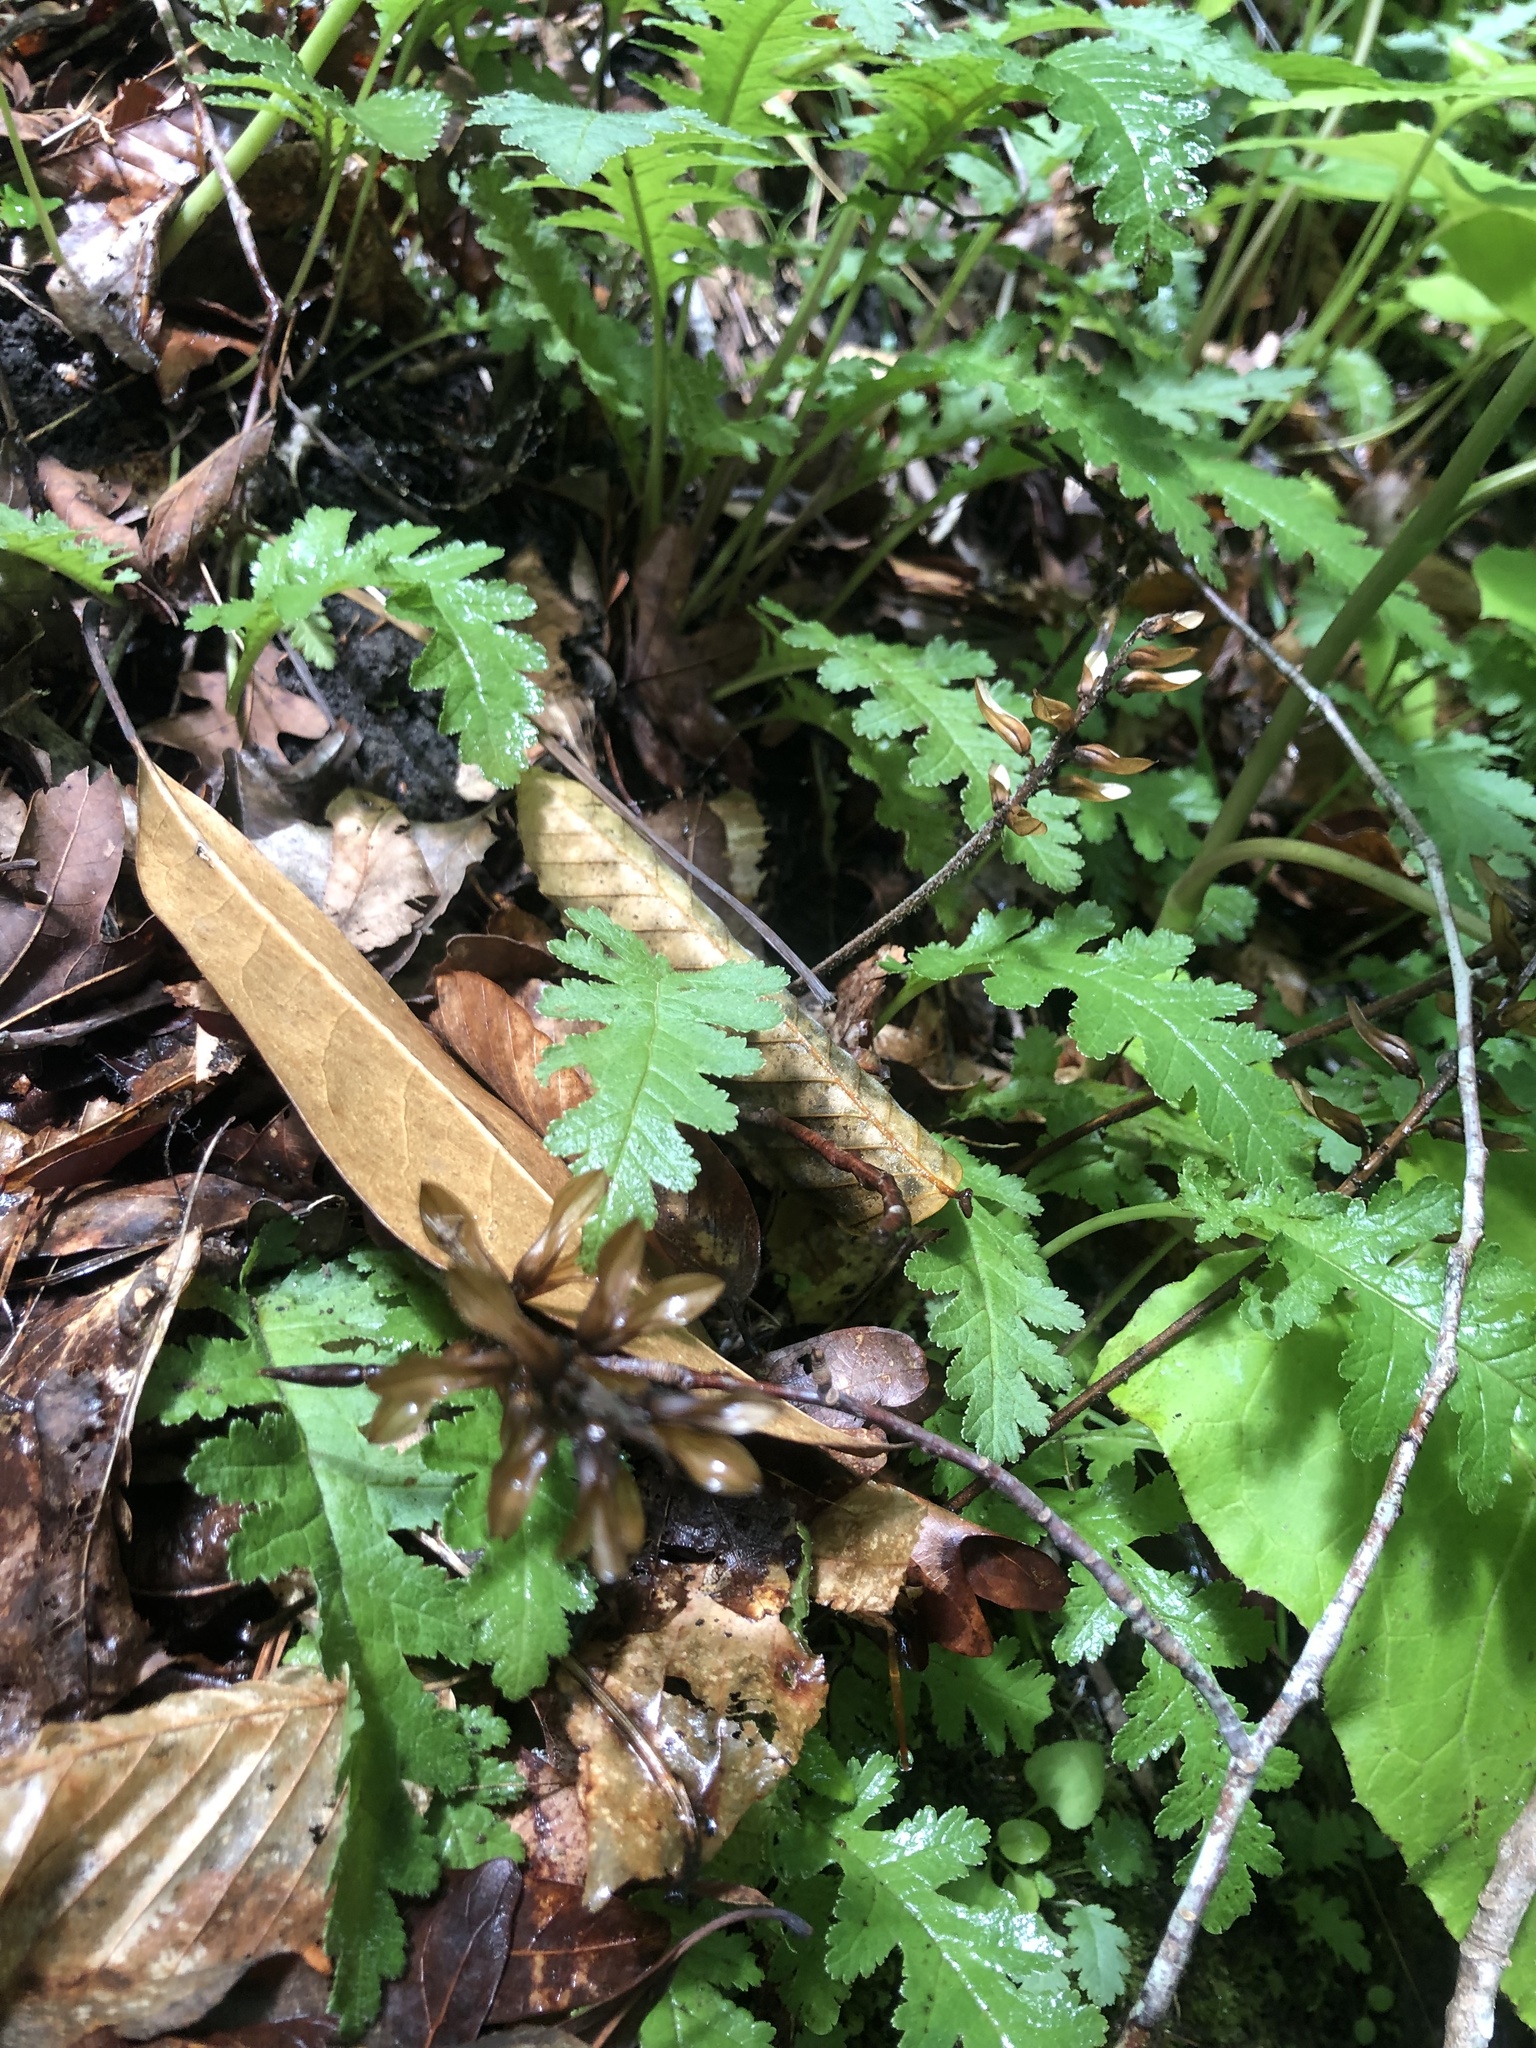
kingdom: Plantae
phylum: Tracheophyta
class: Magnoliopsida
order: Lamiales
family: Orobanchaceae
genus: Pedicularis
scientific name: Pedicularis canadensis
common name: Early lousewort
